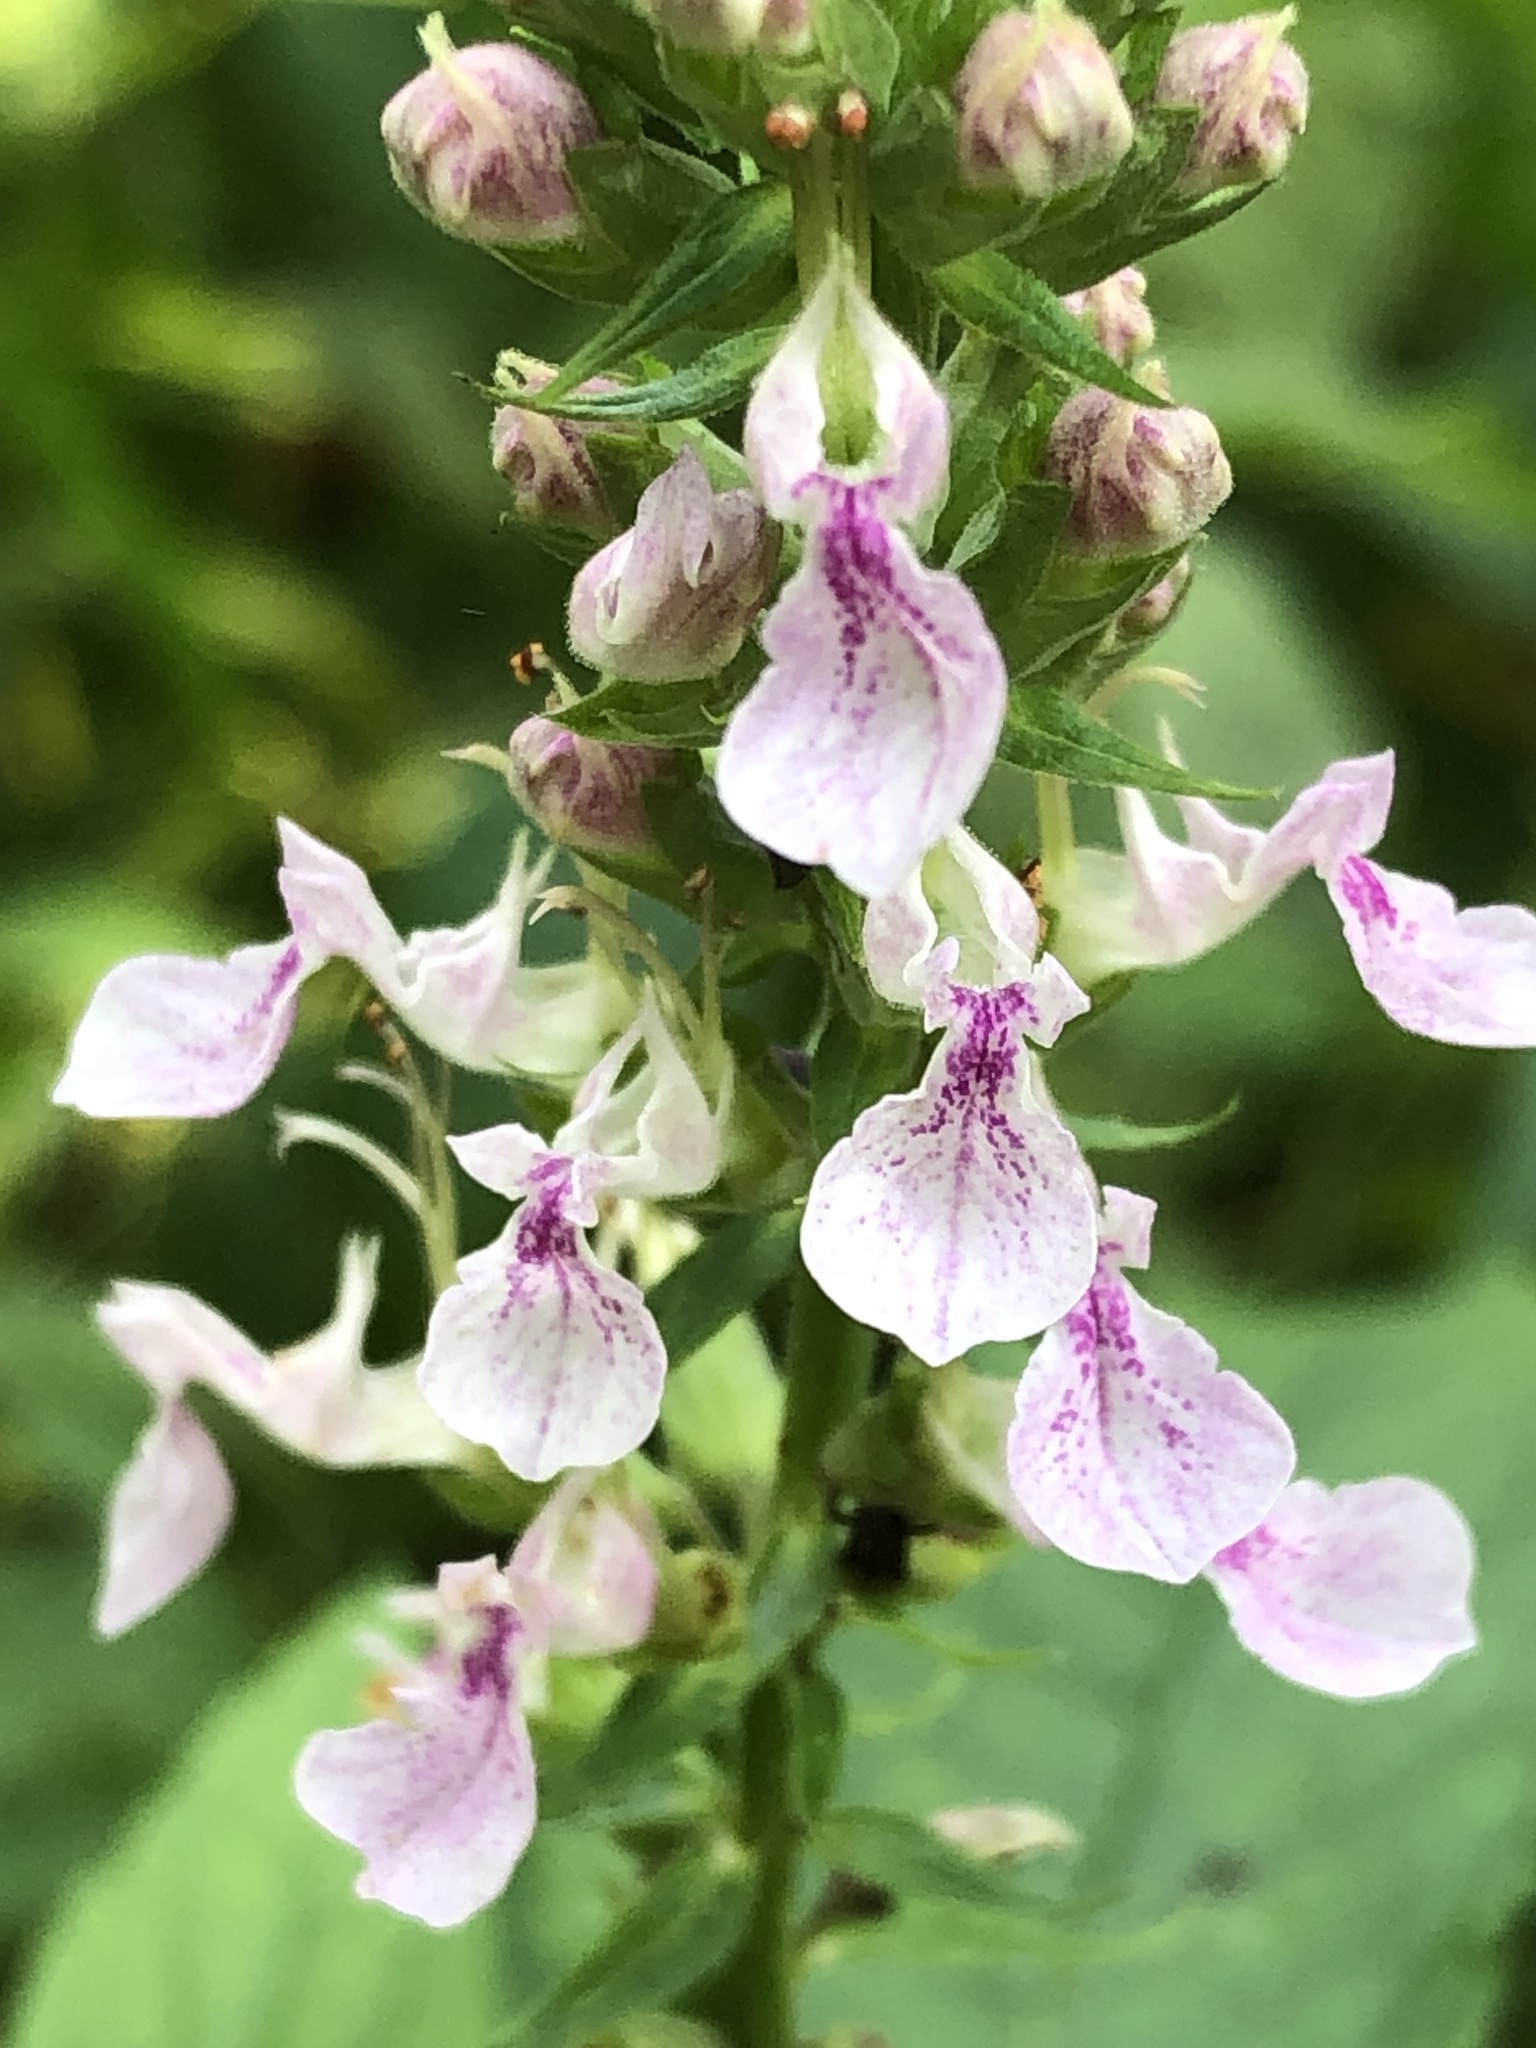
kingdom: Plantae
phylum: Tracheophyta
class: Magnoliopsida
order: Lamiales
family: Lamiaceae
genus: Teucrium
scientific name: Teucrium canadense
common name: American germander
